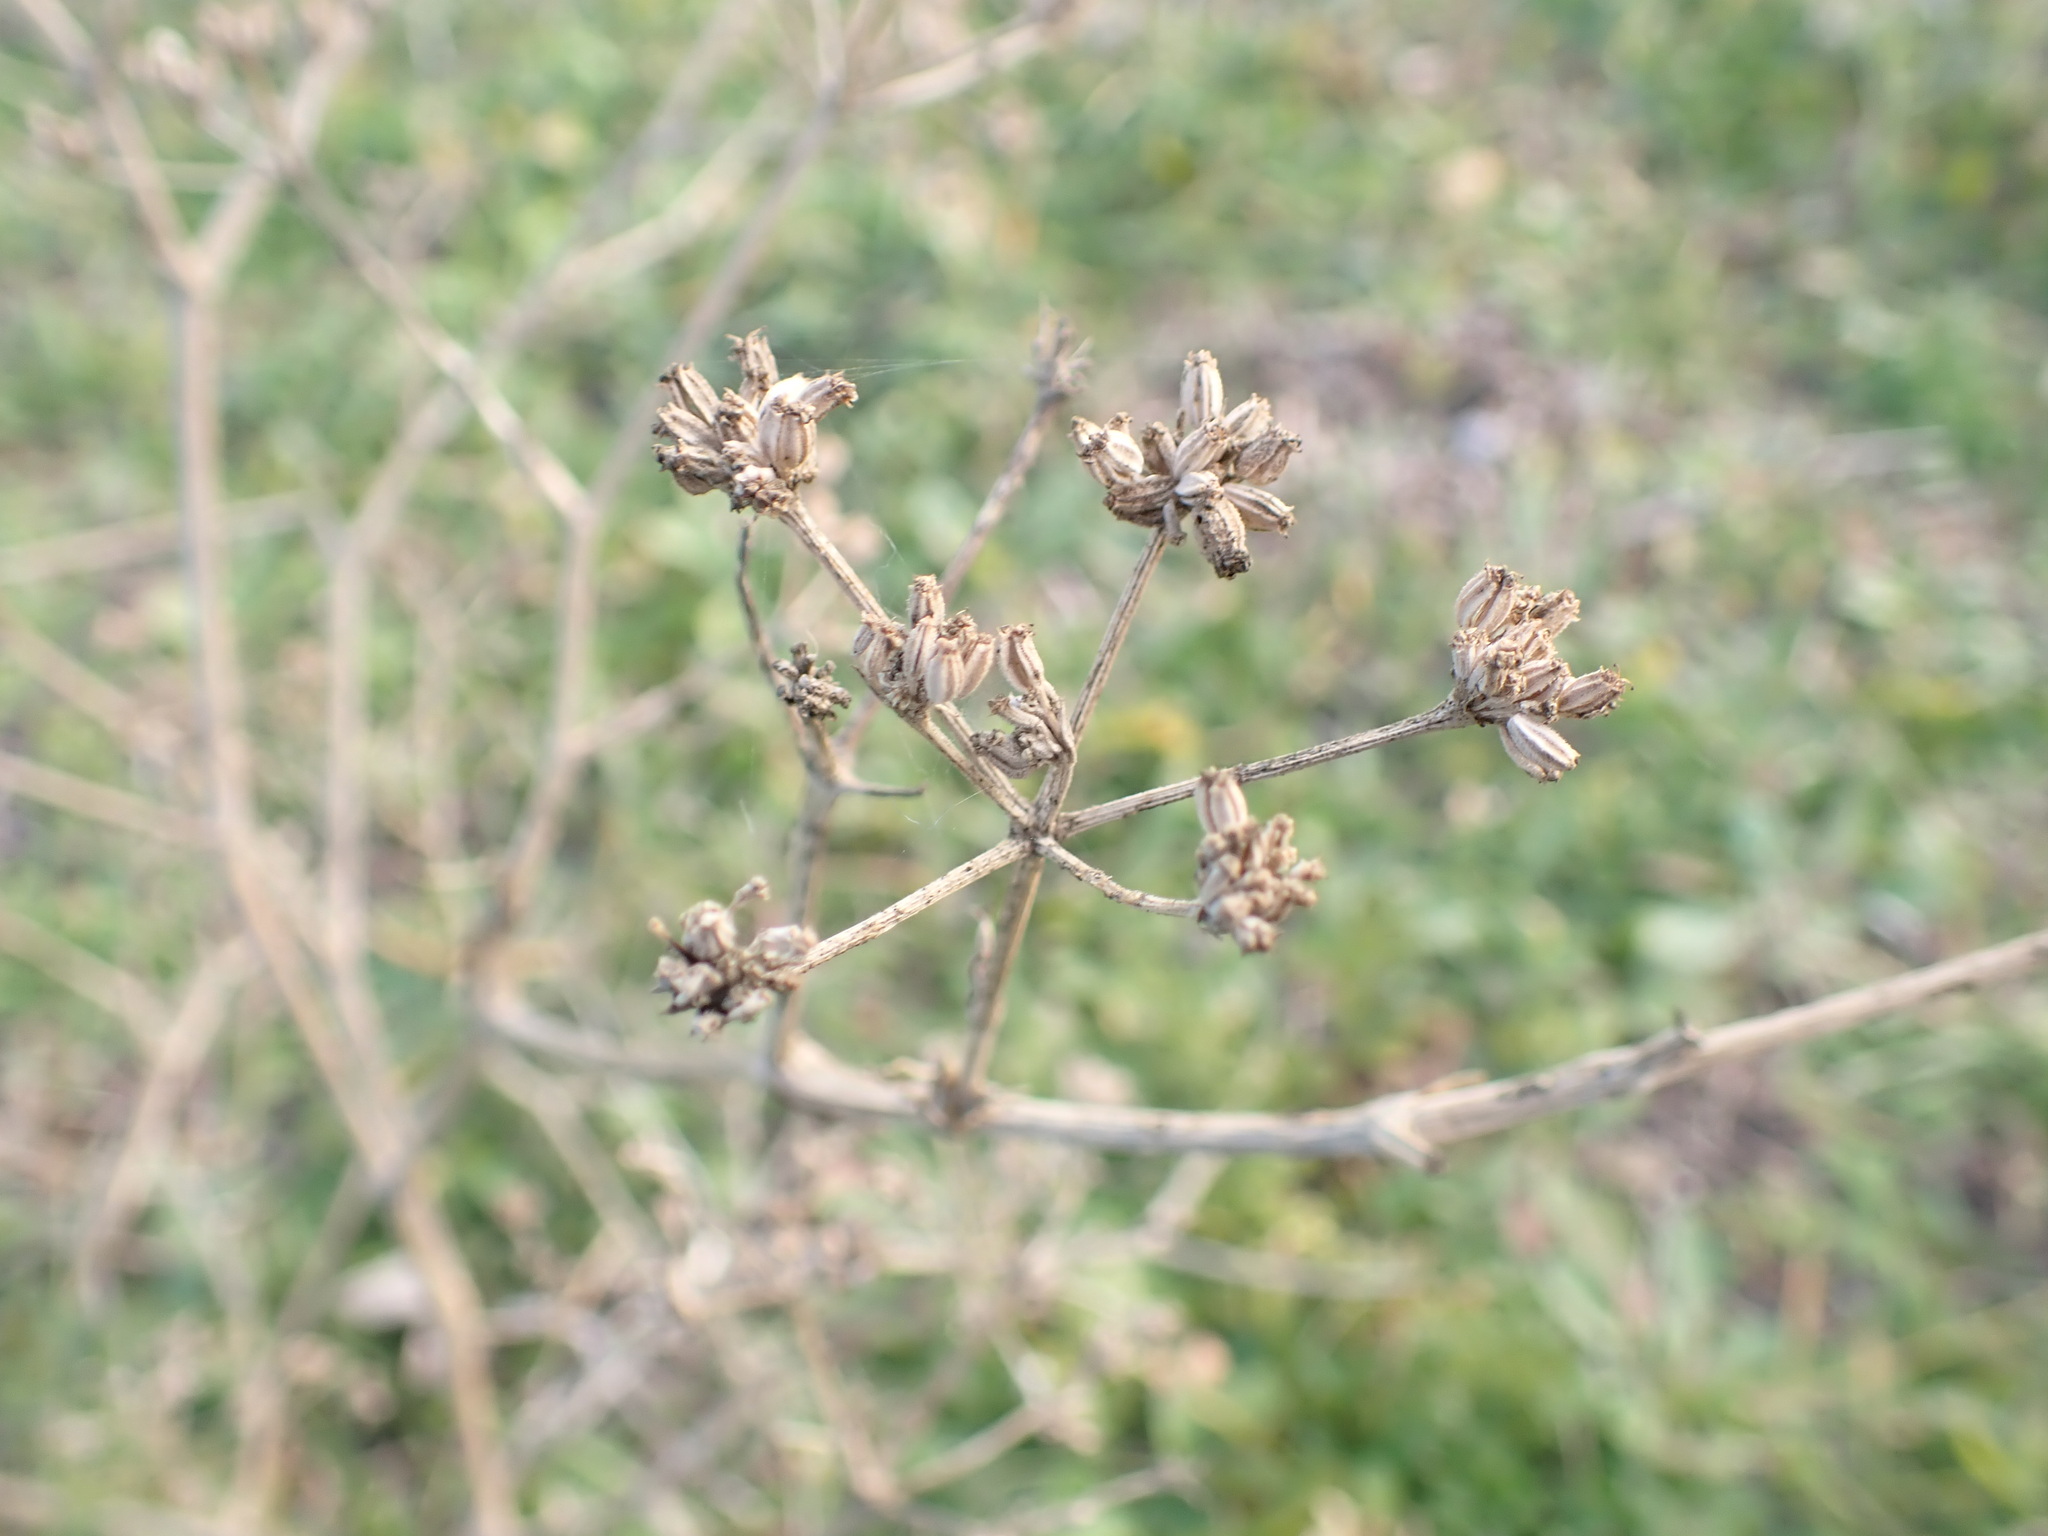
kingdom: Plantae
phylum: Tracheophyta
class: Magnoliopsida
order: Apiales
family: Apiaceae
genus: Seseli
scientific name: Seseli tortuosum
